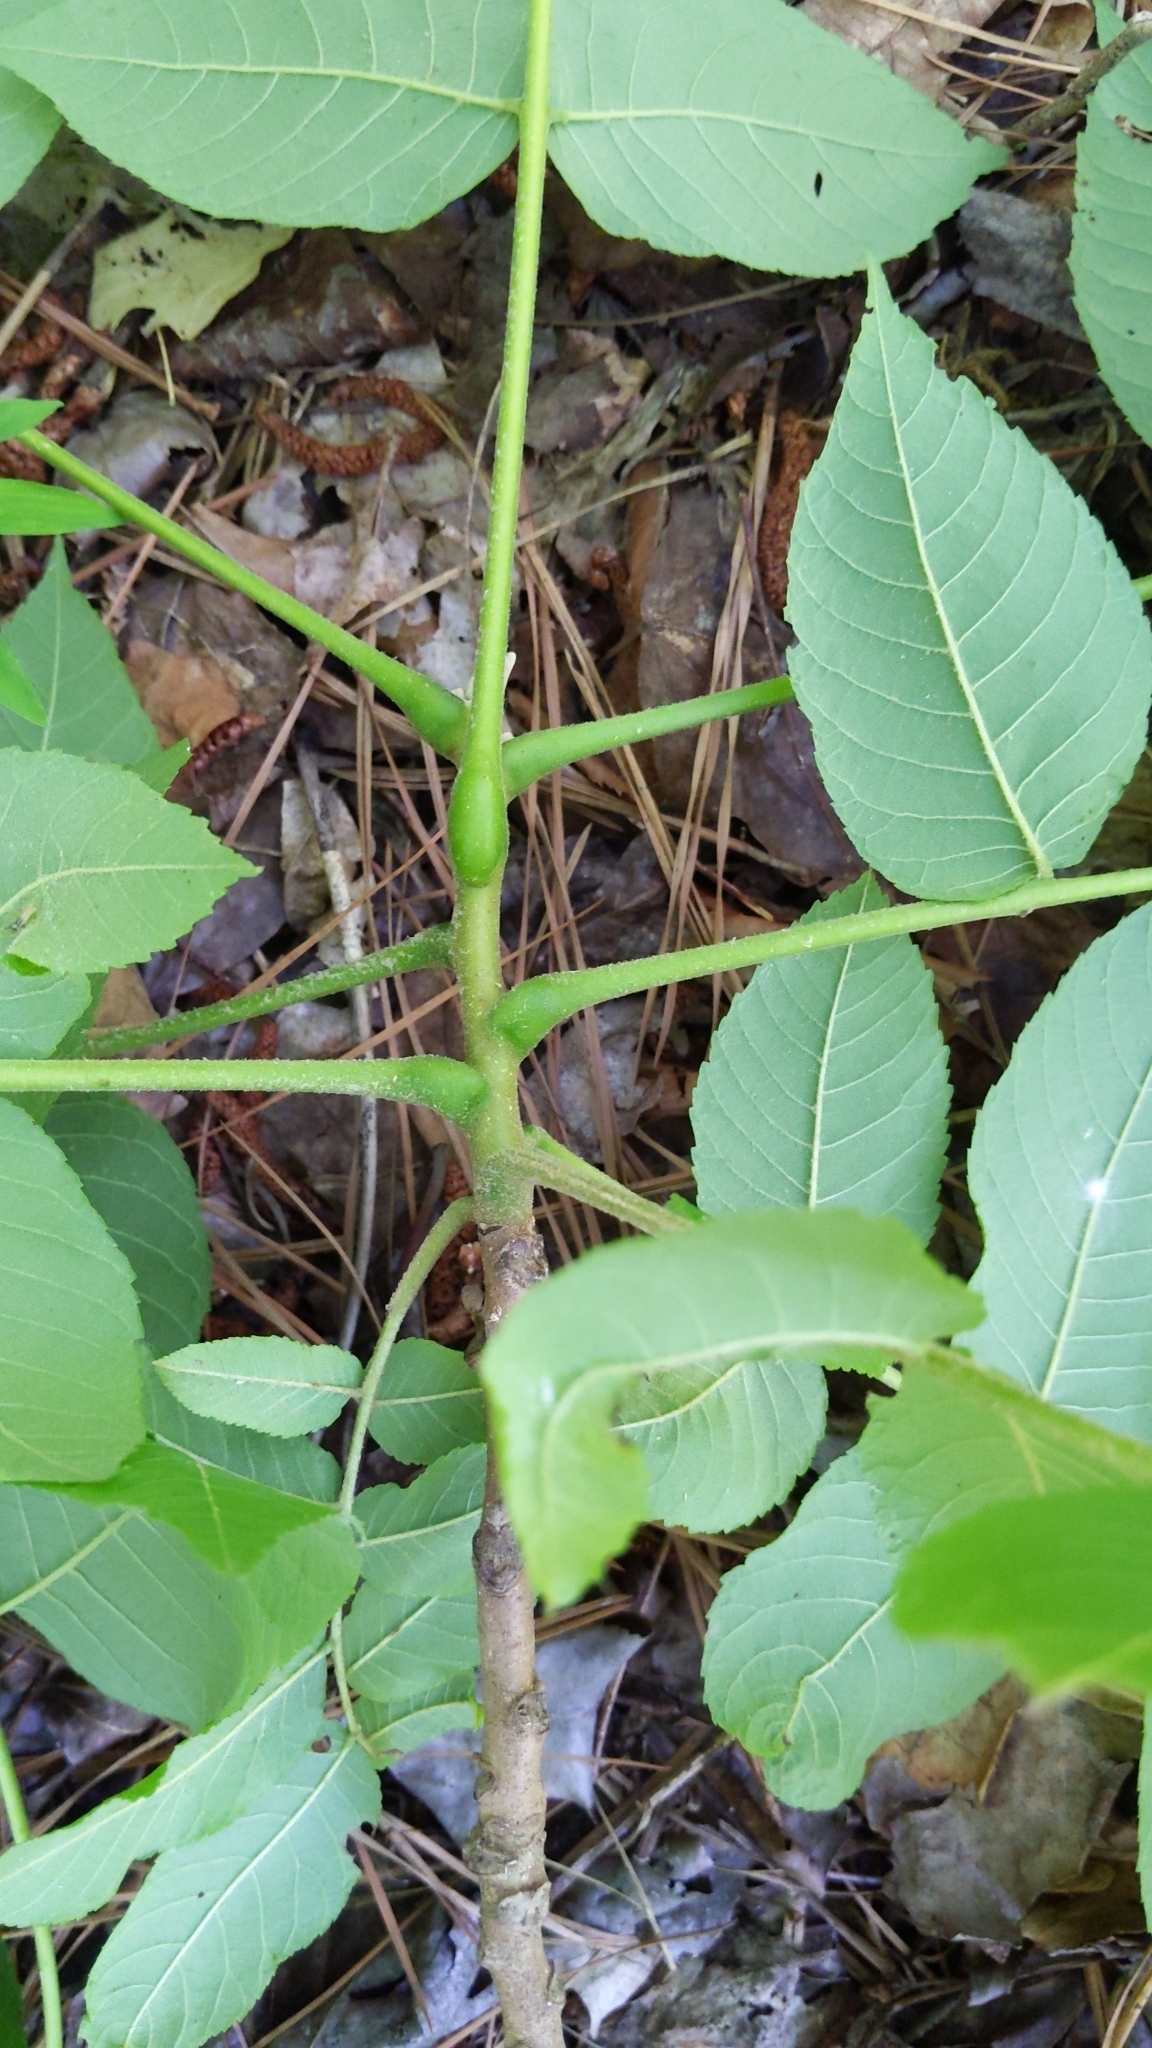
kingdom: Plantae
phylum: Tracheophyta
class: Magnoliopsida
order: Fagales
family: Juglandaceae
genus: Juglans
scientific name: Juglans nigra
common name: Black walnut
